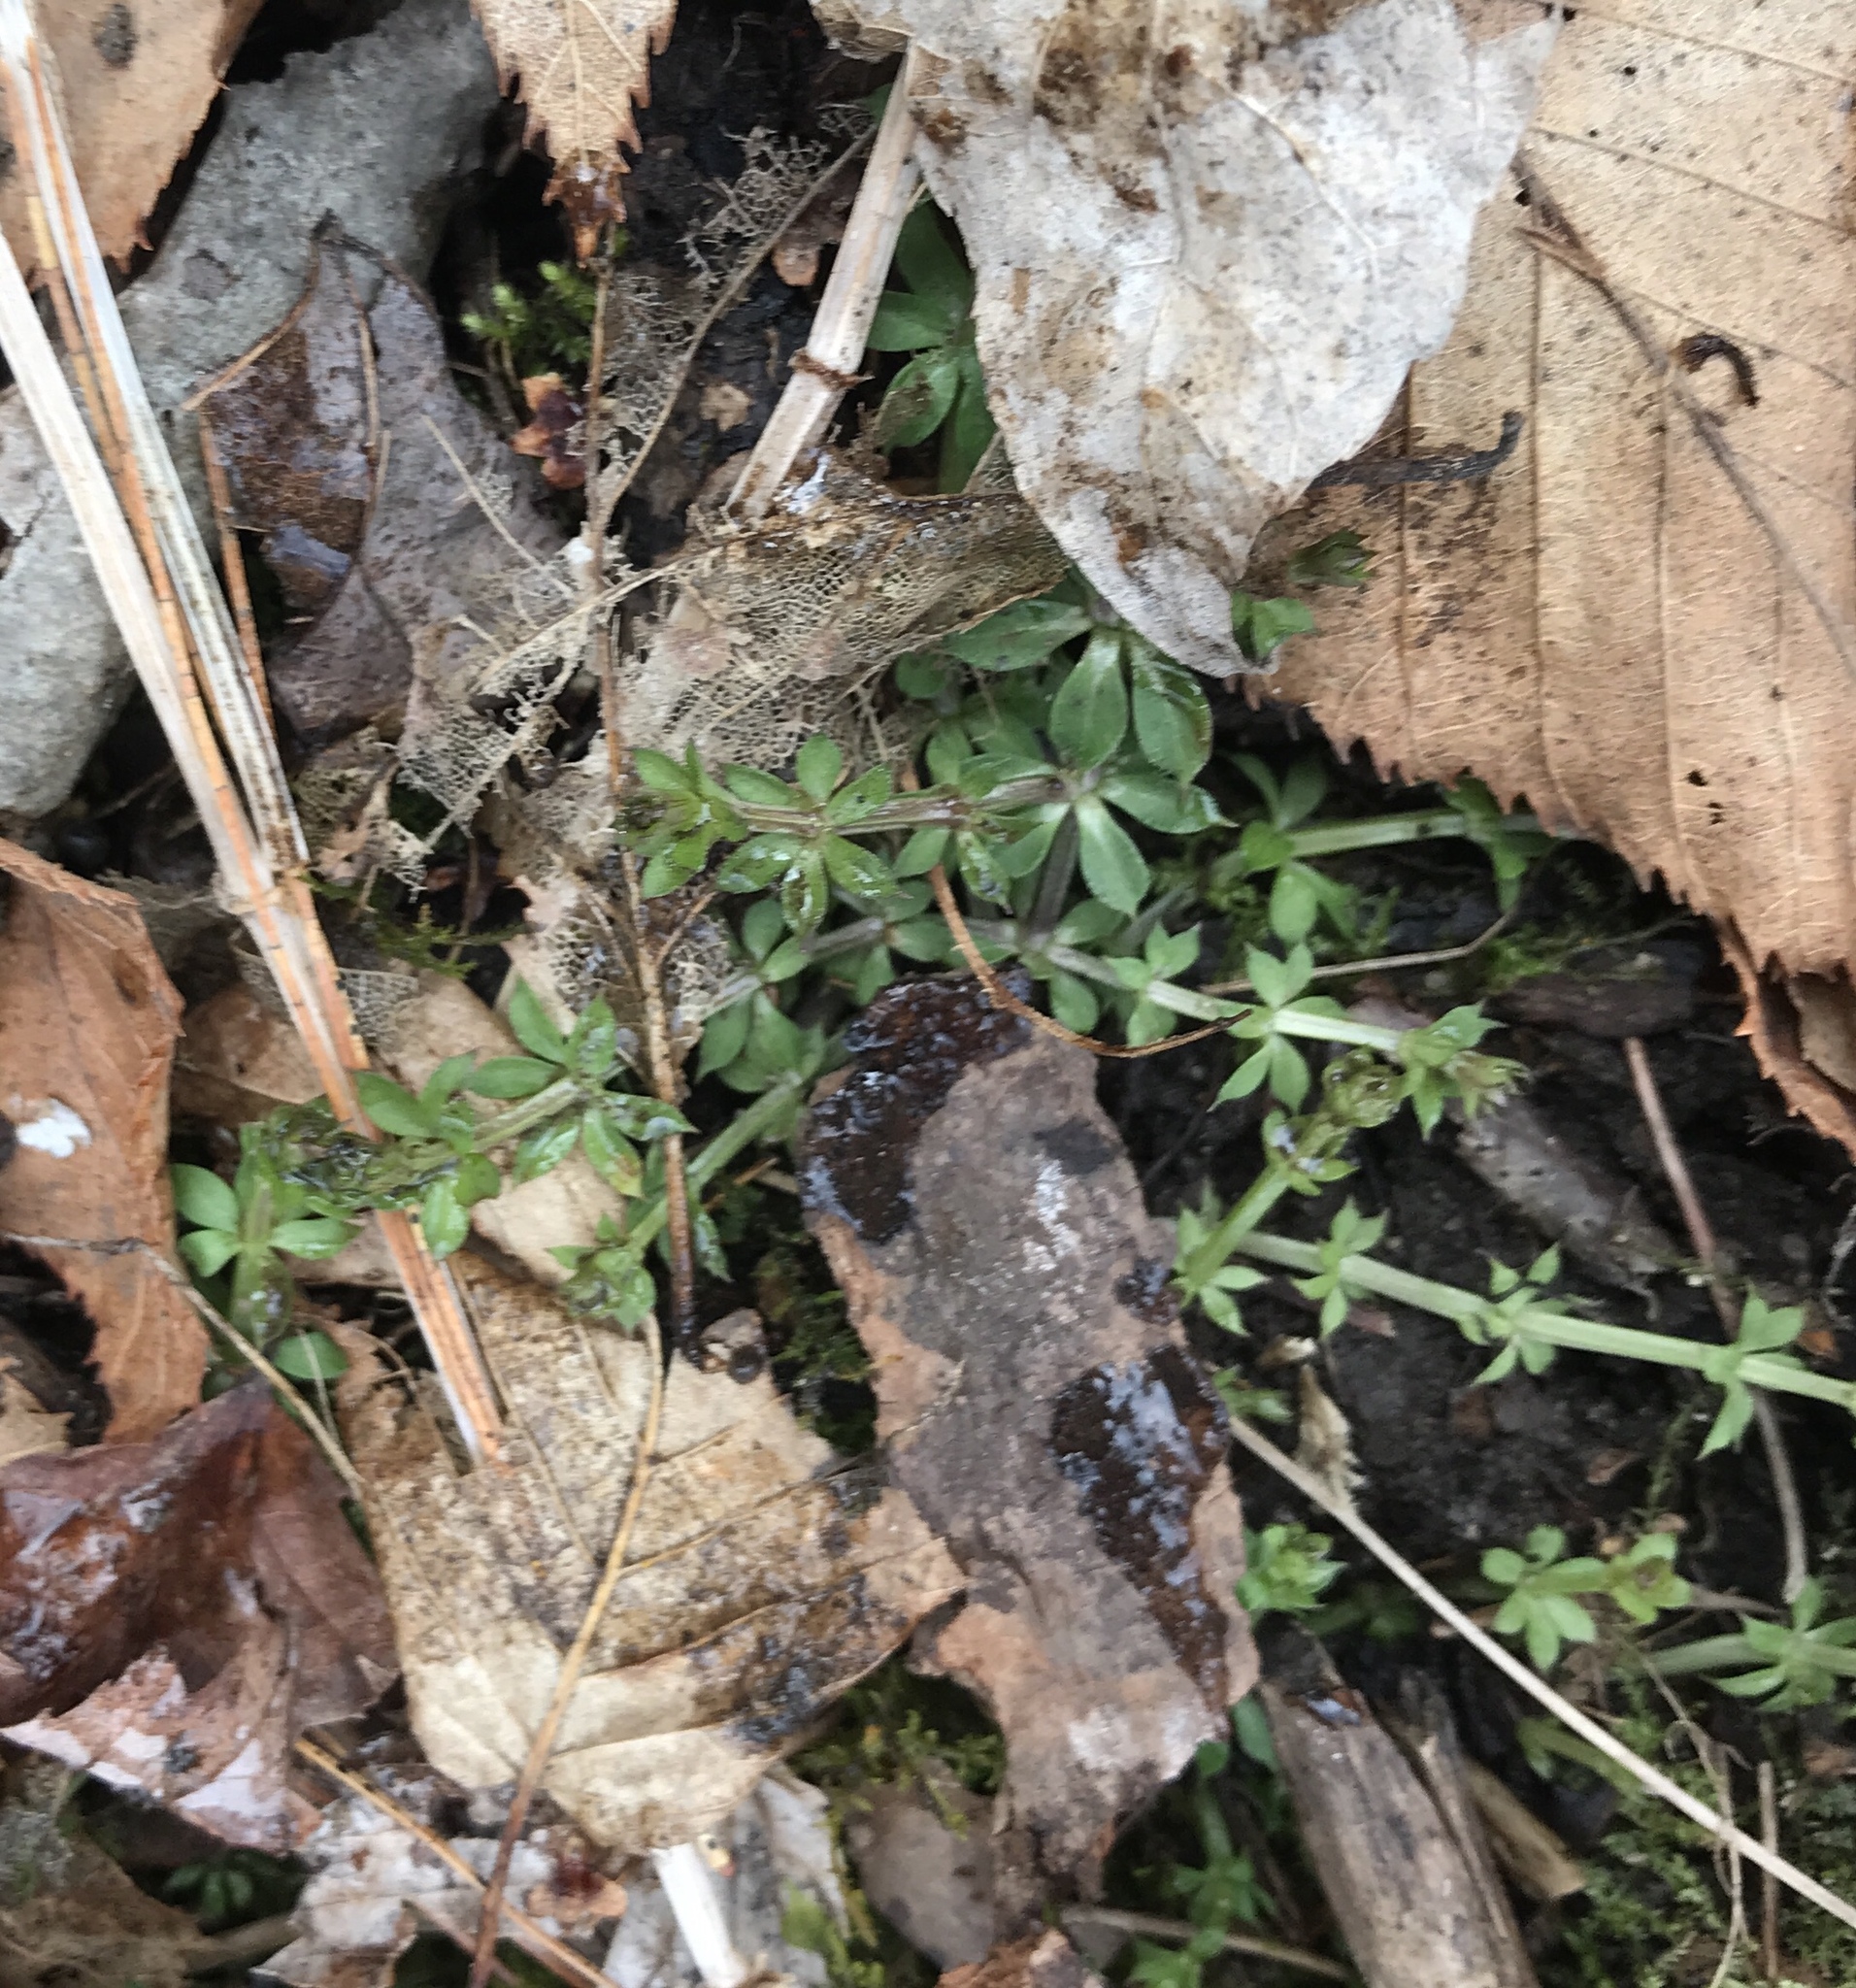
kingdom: Plantae
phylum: Tracheophyta
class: Magnoliopsida
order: Gentianales
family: Rubiaceae
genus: Galium
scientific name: Galium triflorum
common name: Fragrant bedstraw
